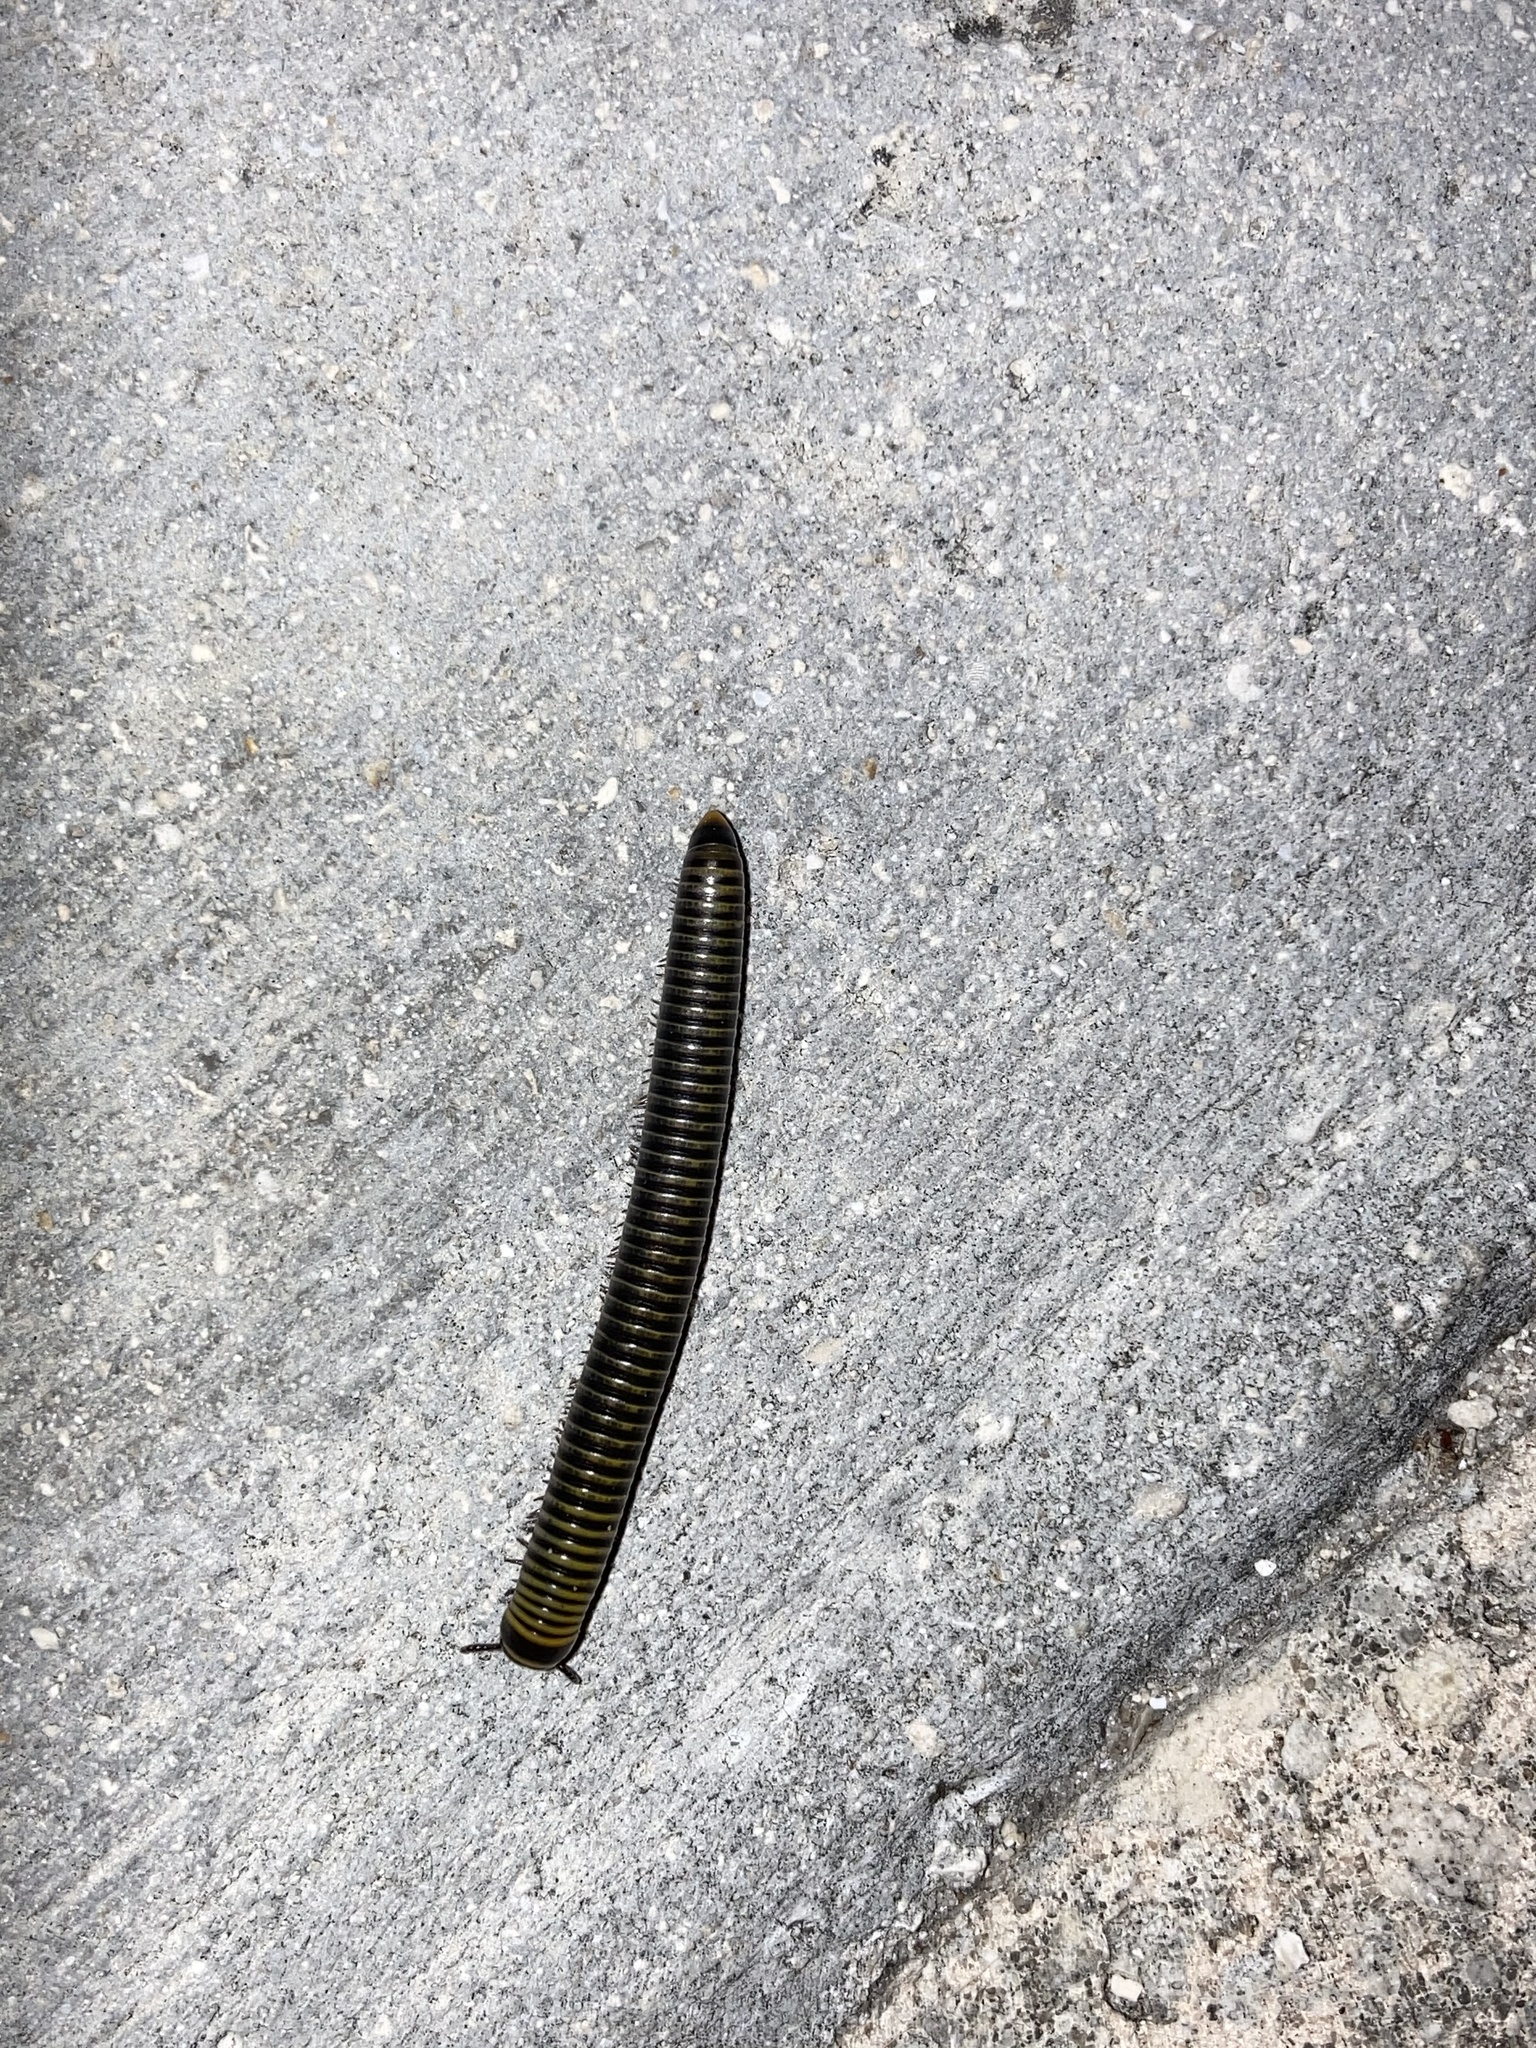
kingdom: Animalia
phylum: Arthropoda
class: Diplopoda
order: Spirobolida
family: Rhinocricidae
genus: Anadenobolus
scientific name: Anadenobolus monilicornis
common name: Caribbean millipede
